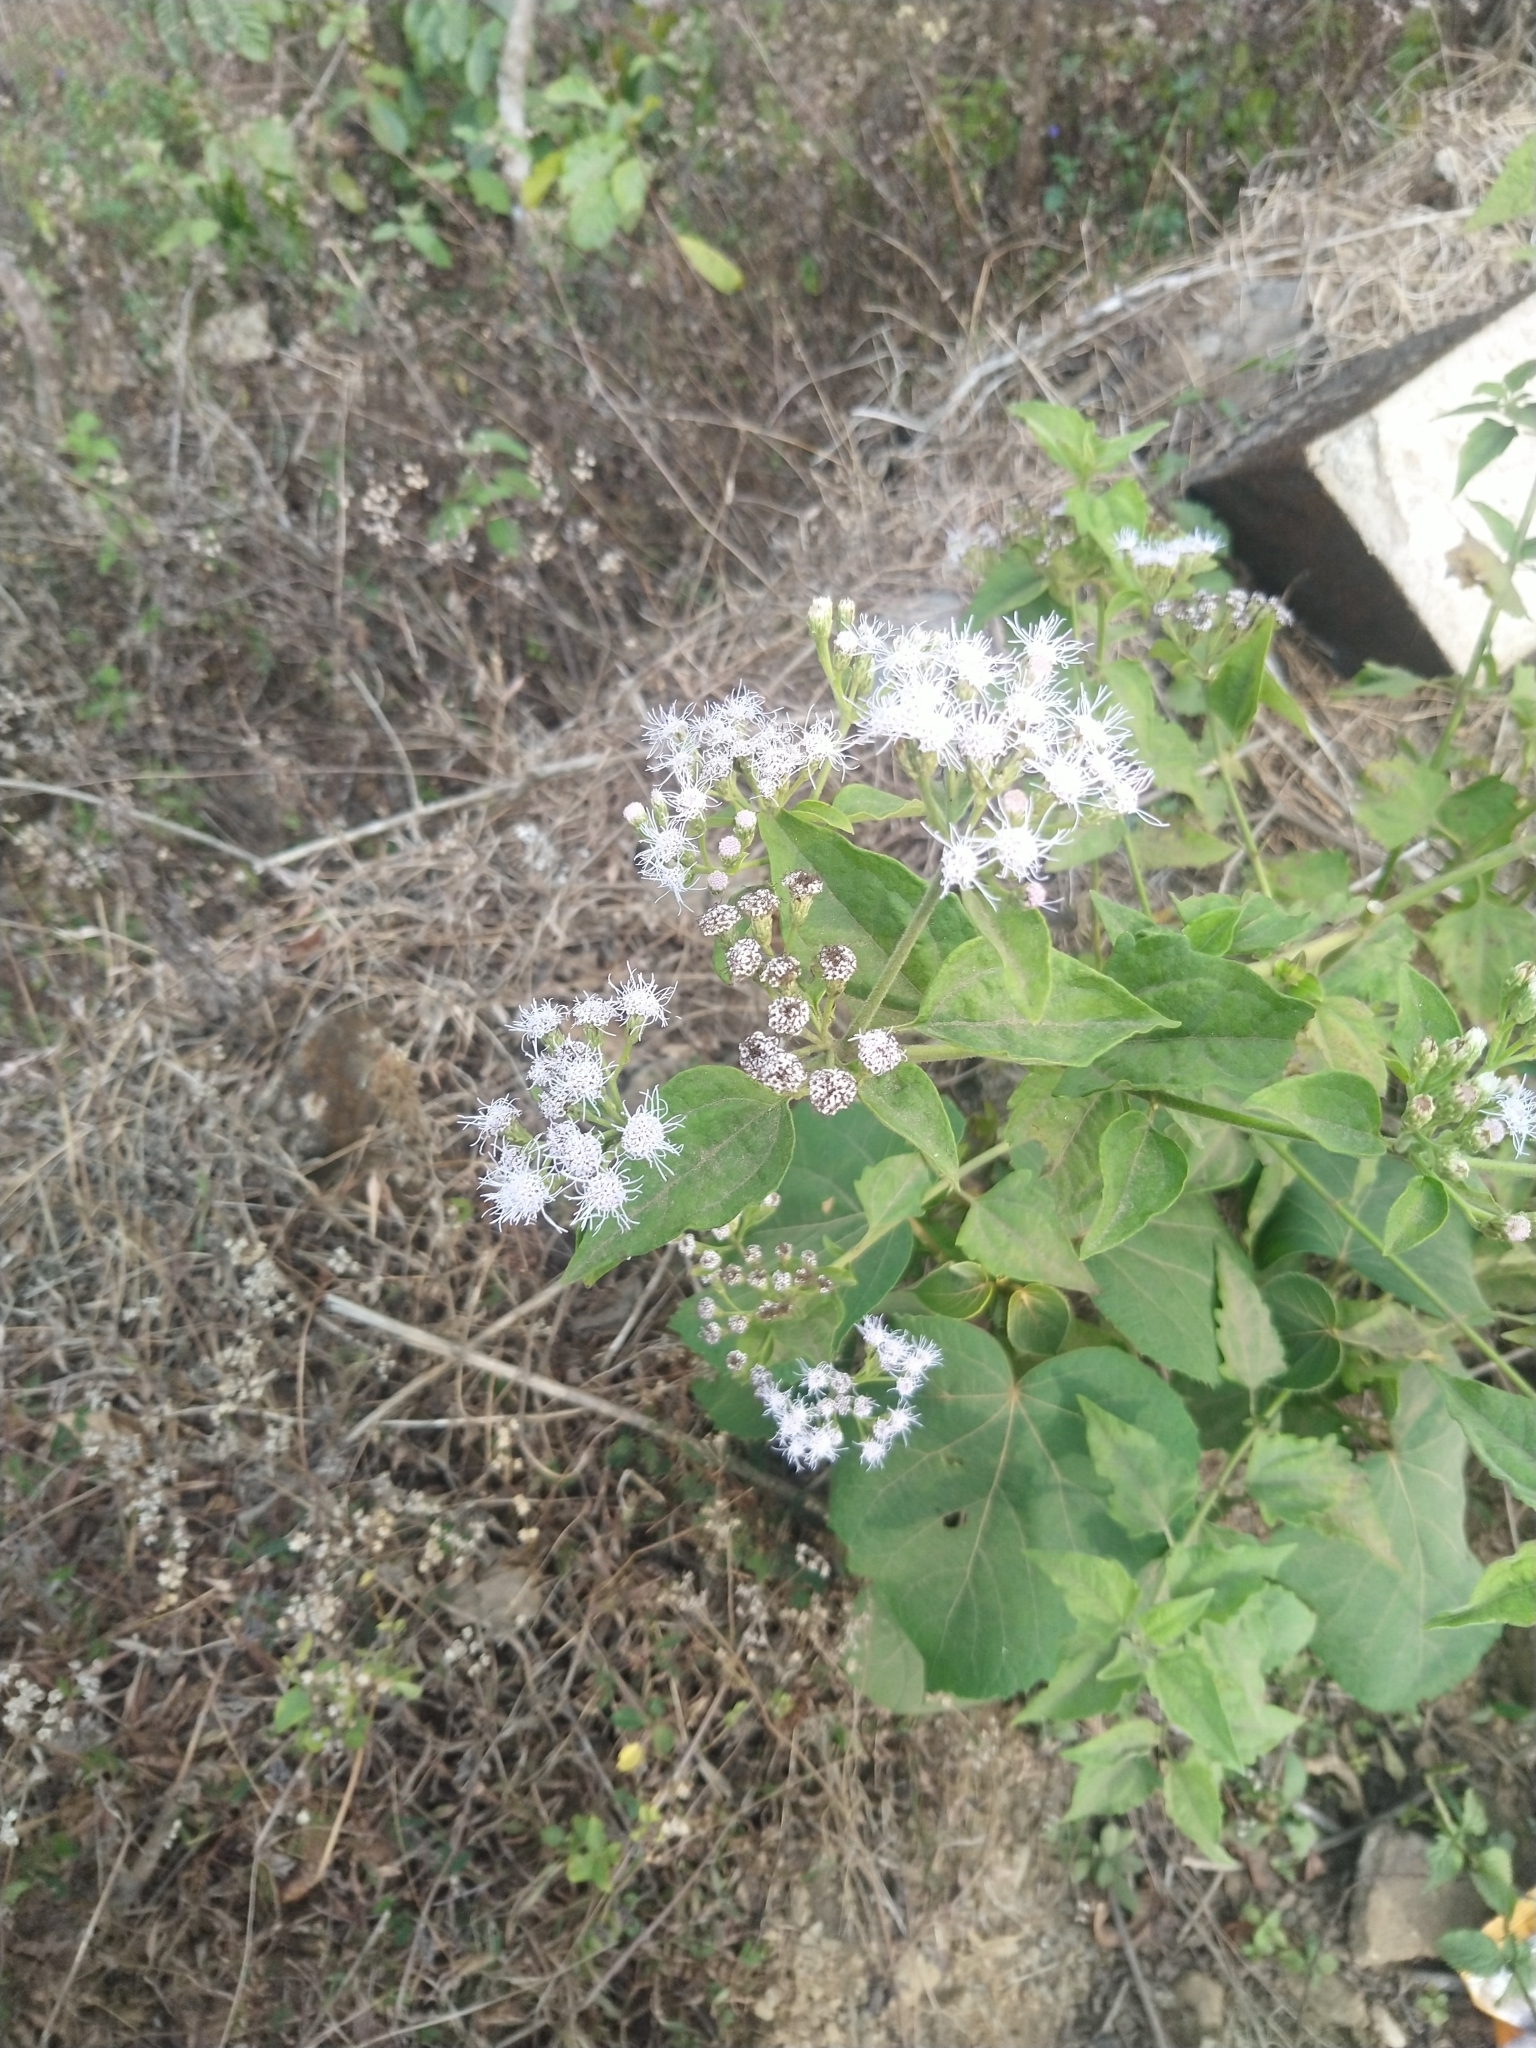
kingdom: Plantae
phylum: Tracheophyta
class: Magnoliopsida
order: Asterales
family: Asteraceae
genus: Chromolaena
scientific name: Chromolaena odorata
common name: Siamweed
